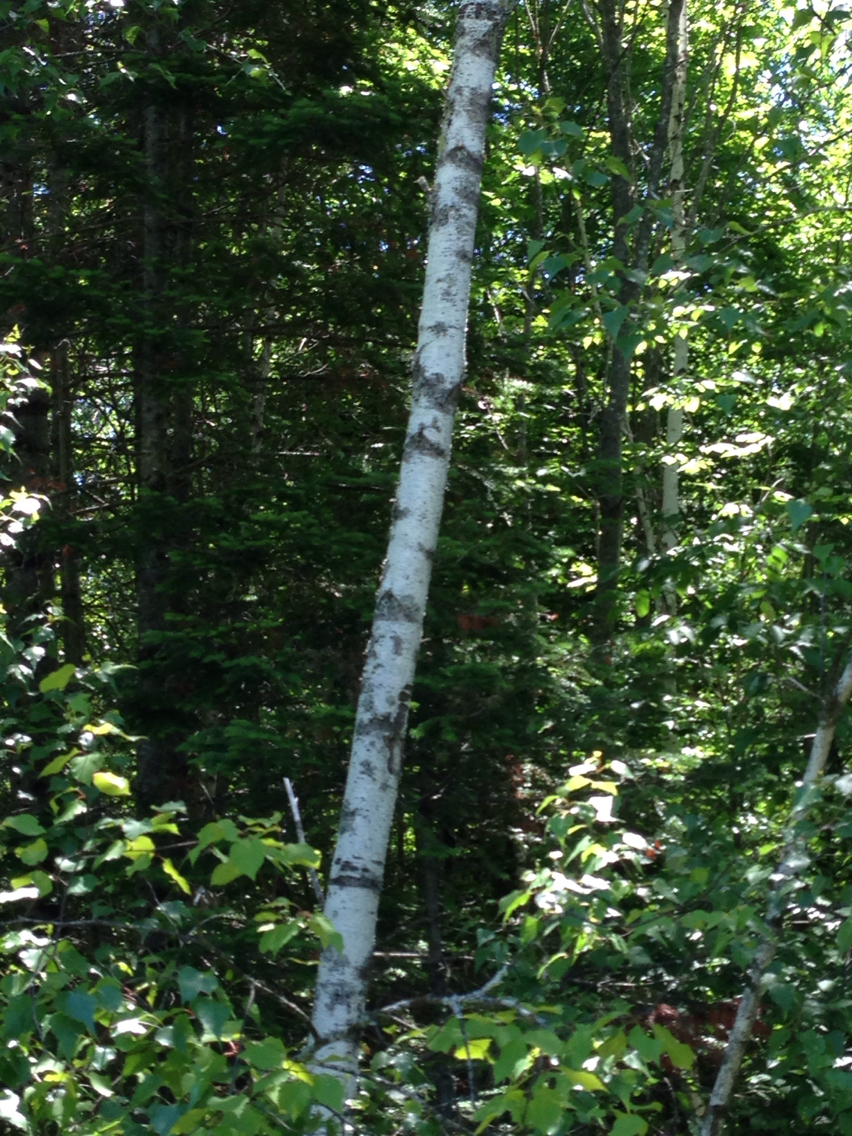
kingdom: Plantae
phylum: Tracheophyta
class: Magnoliopsida
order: Fagales
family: Betulaceae
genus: Betula
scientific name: Betula populifolia
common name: Fire birch
